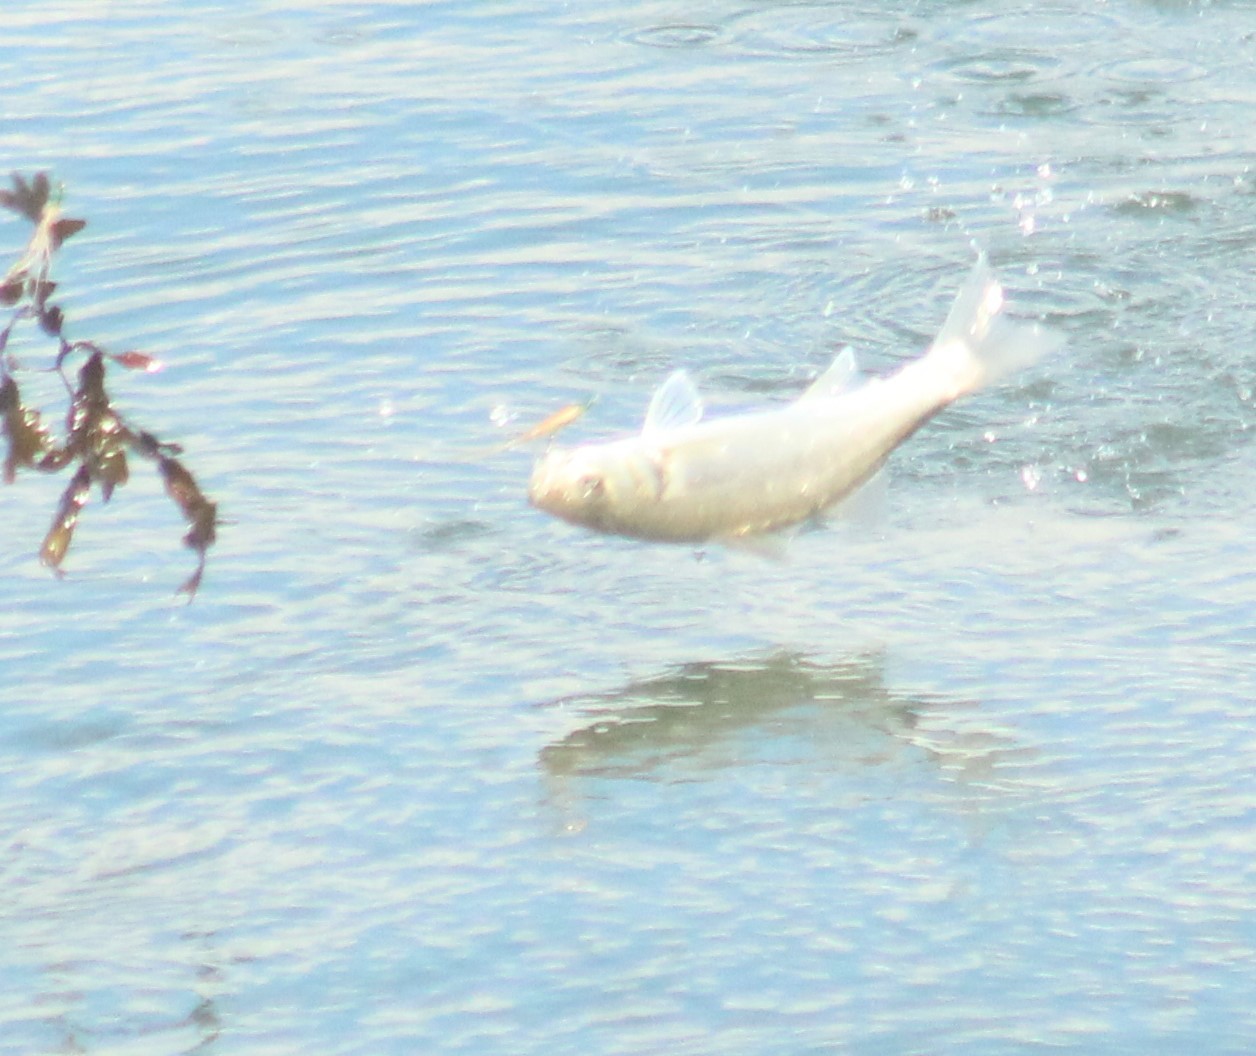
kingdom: Animalia
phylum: Chordata
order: Perciformes
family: Moronidae
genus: Dicentrarchus
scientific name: Dicentrarchus labrax
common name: European seabass
